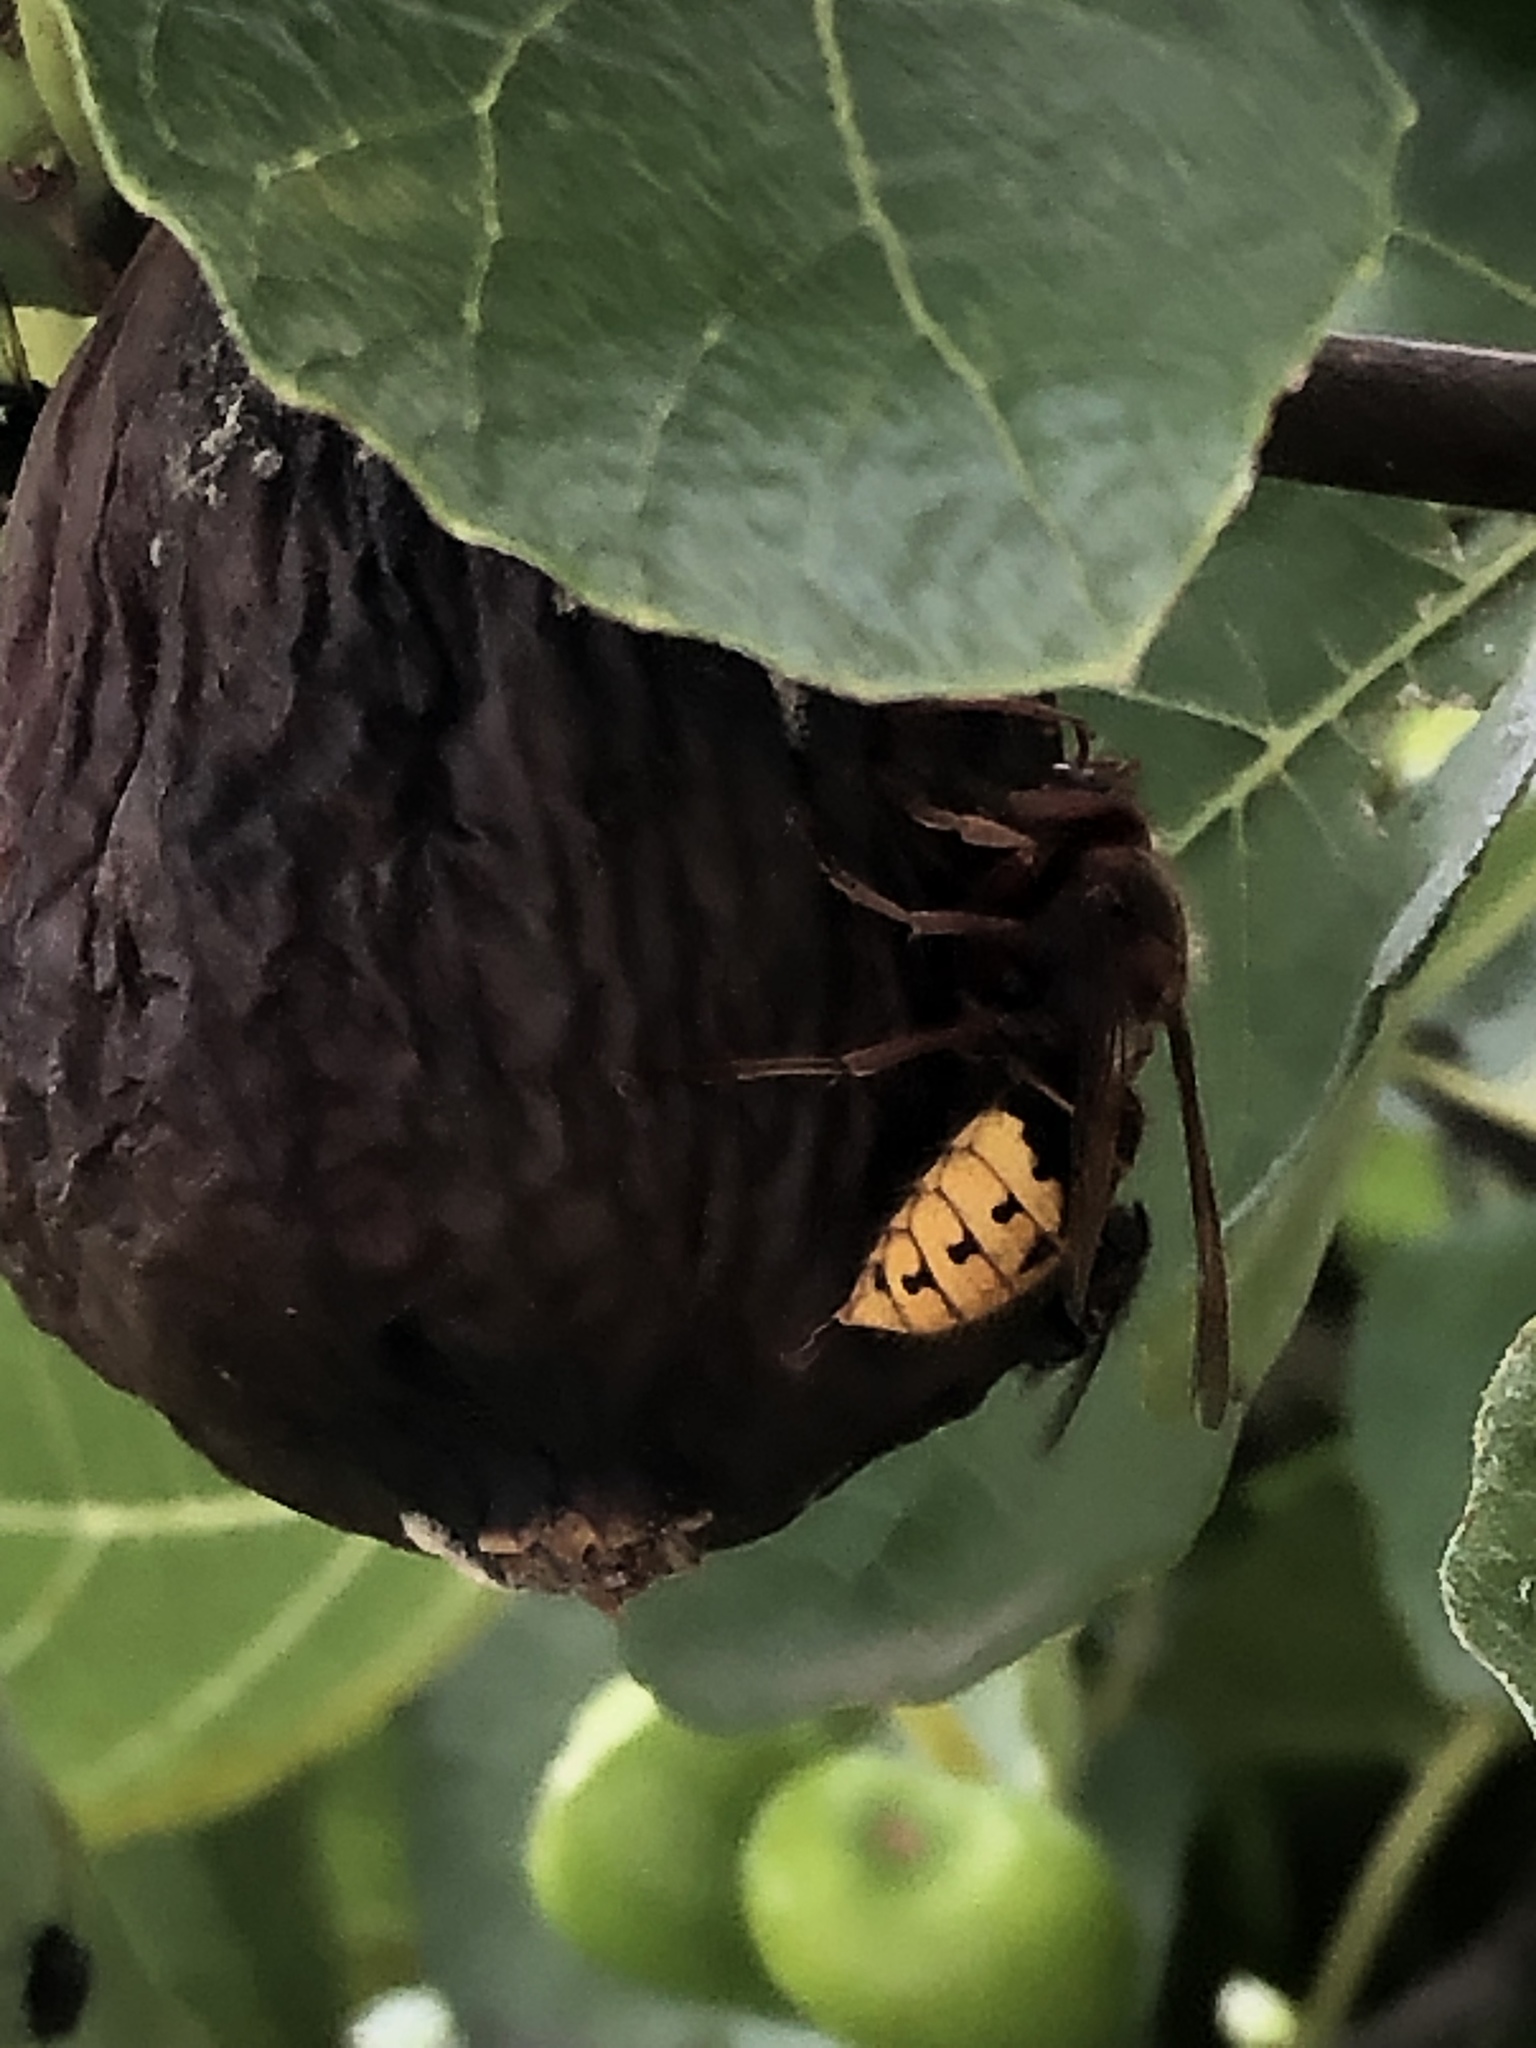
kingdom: Animalia
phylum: Arthropoda
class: Insecta
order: Hymenoptera
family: Vespidae
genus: Vespa
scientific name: Vespa crabro
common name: Hornet
